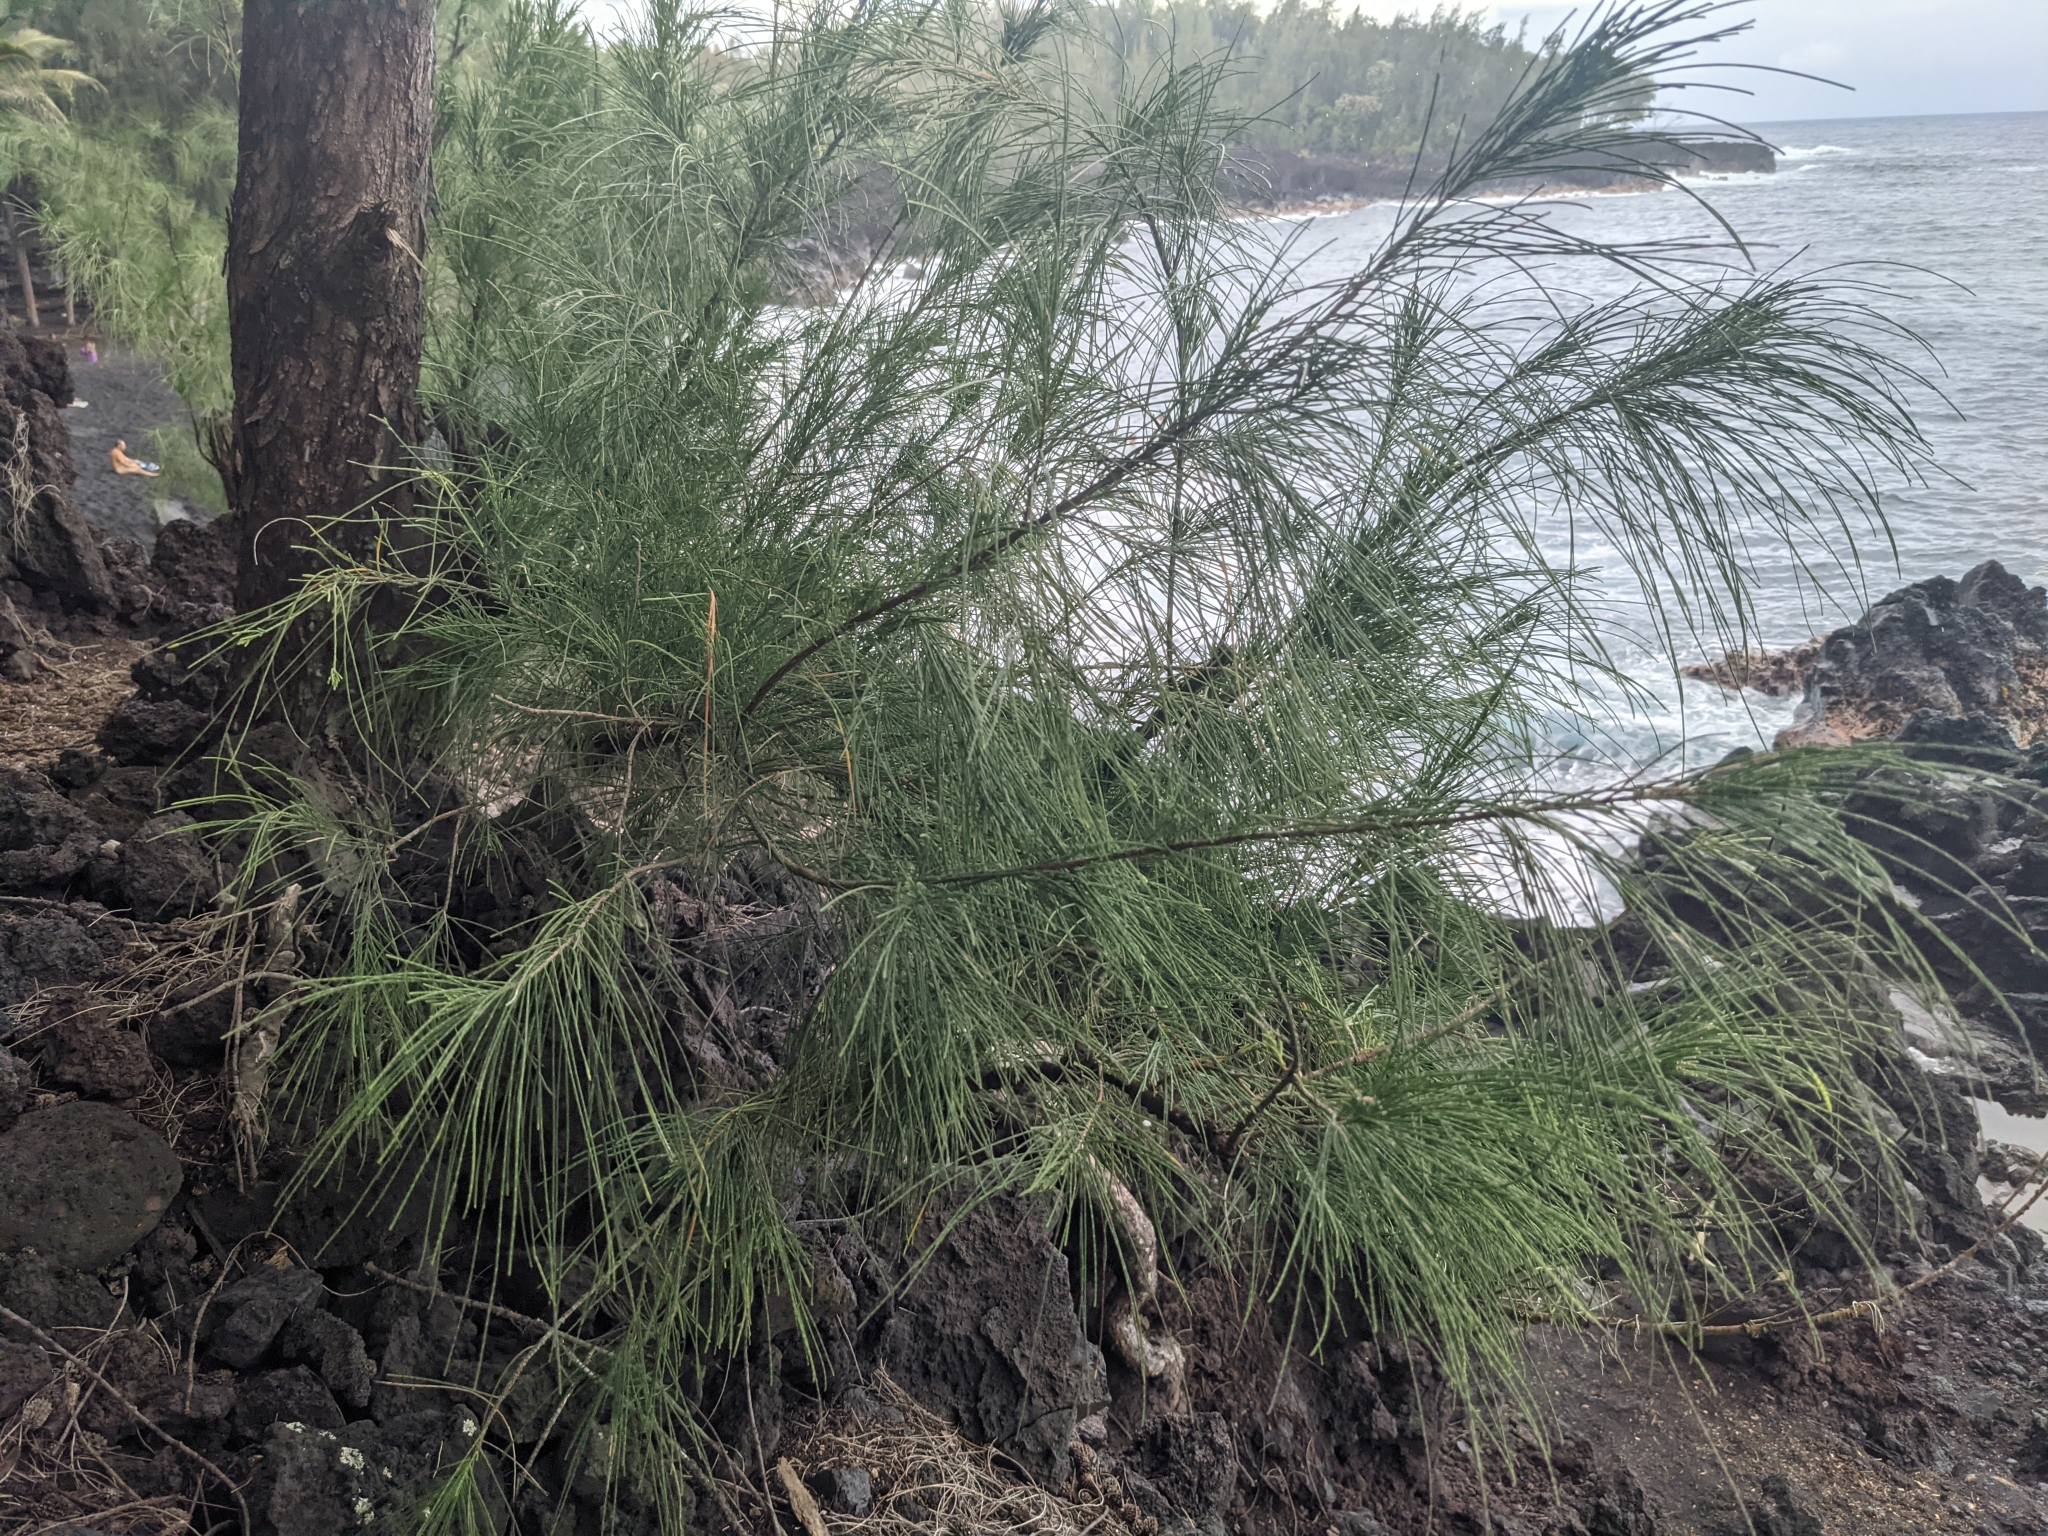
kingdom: Plantae
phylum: Tracheophyta
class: Magnoliopsida
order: Fagales
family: Casuarinaceae
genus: Casuarina
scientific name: Casuarina equisetifolia
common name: Beach sheoak
